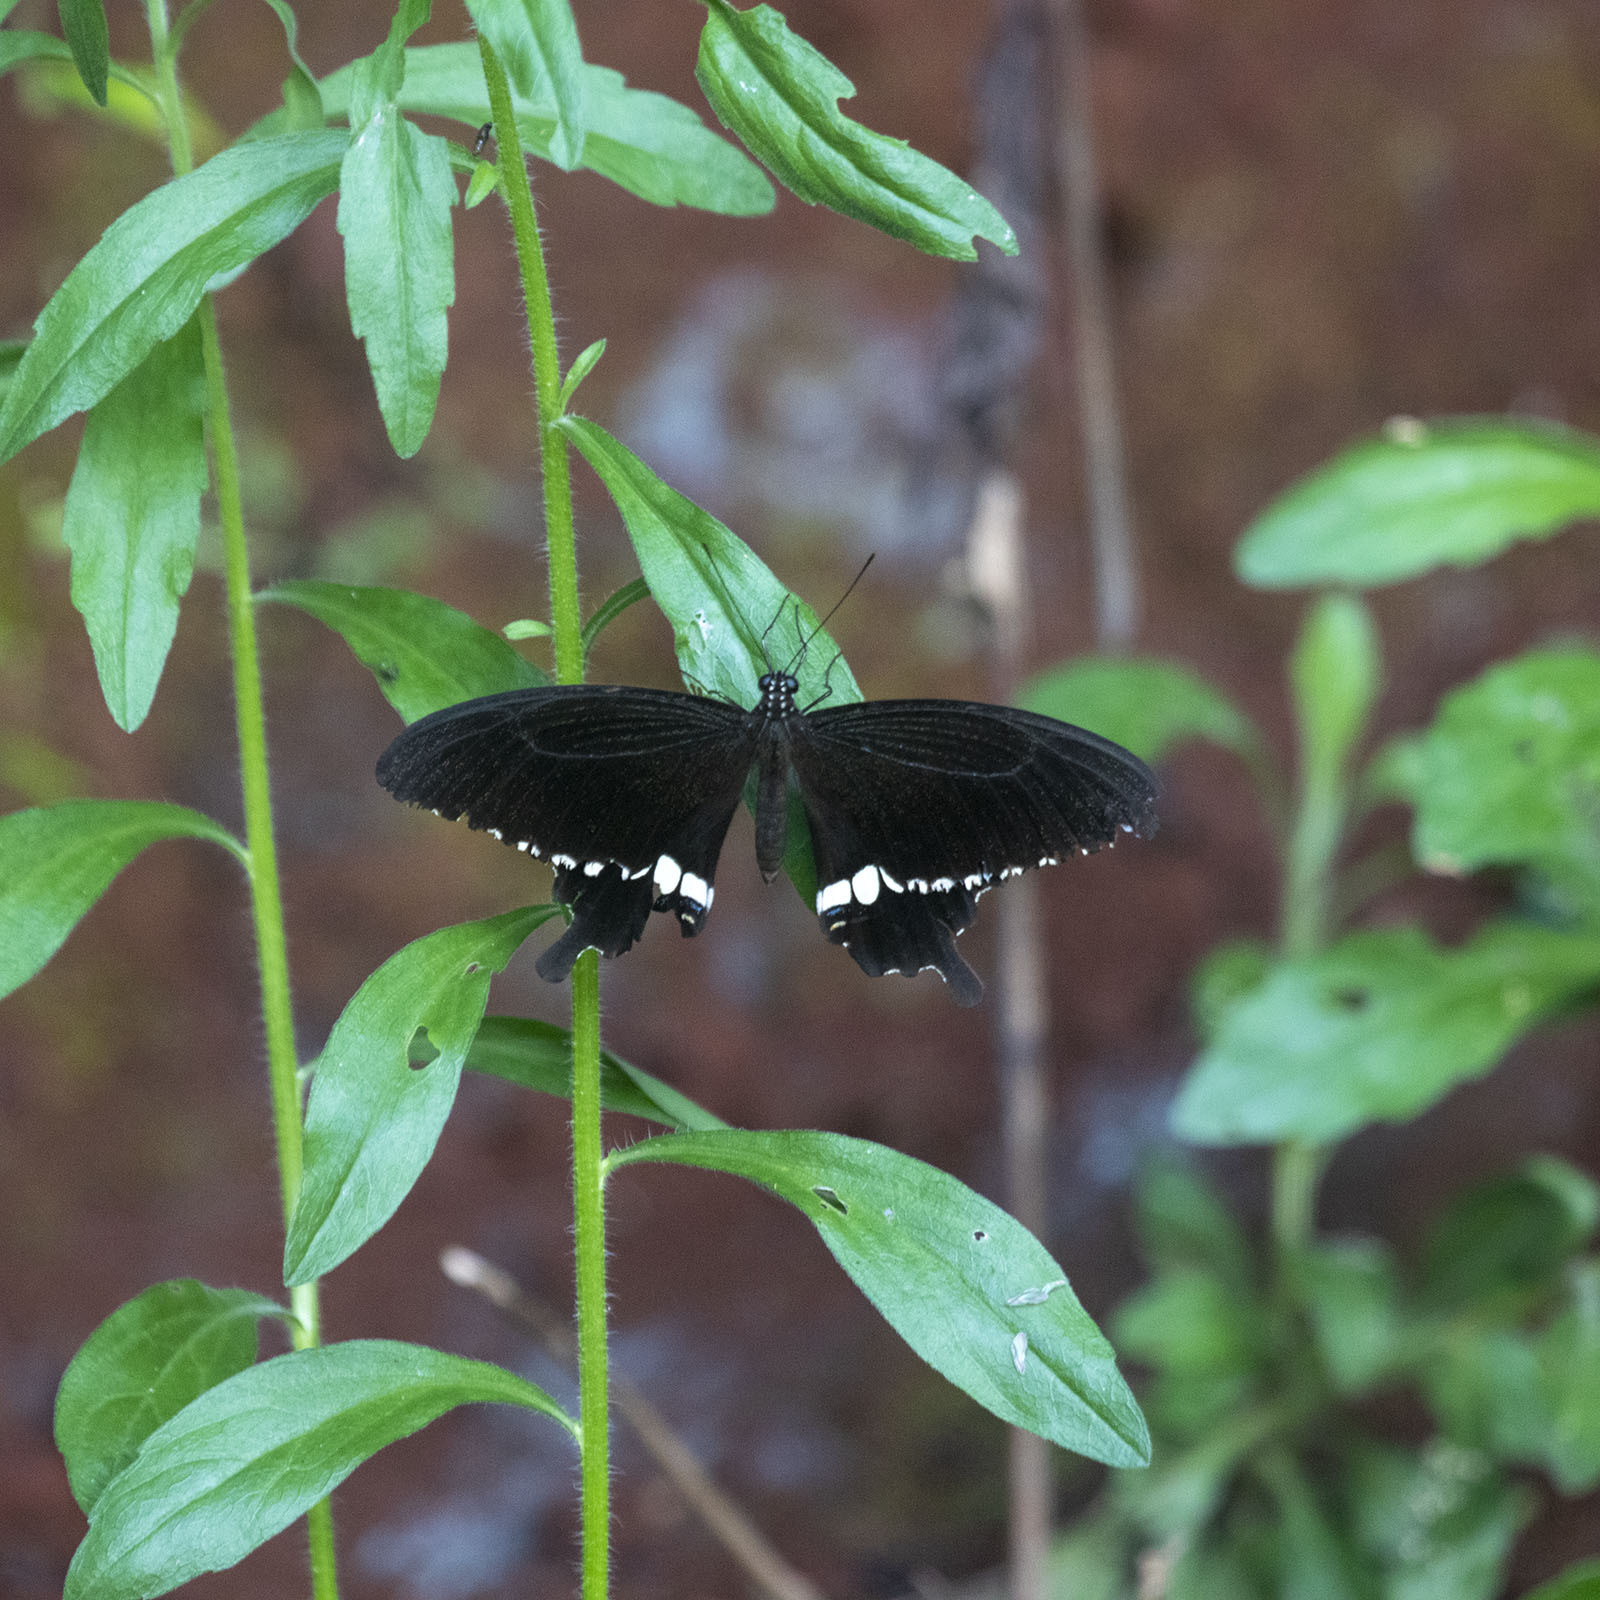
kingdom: Animalia
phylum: Arthropoda
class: Insecta
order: Lepidoptera
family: Papilionidae
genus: Papilio
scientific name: Papilio polytes
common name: Common mormon
